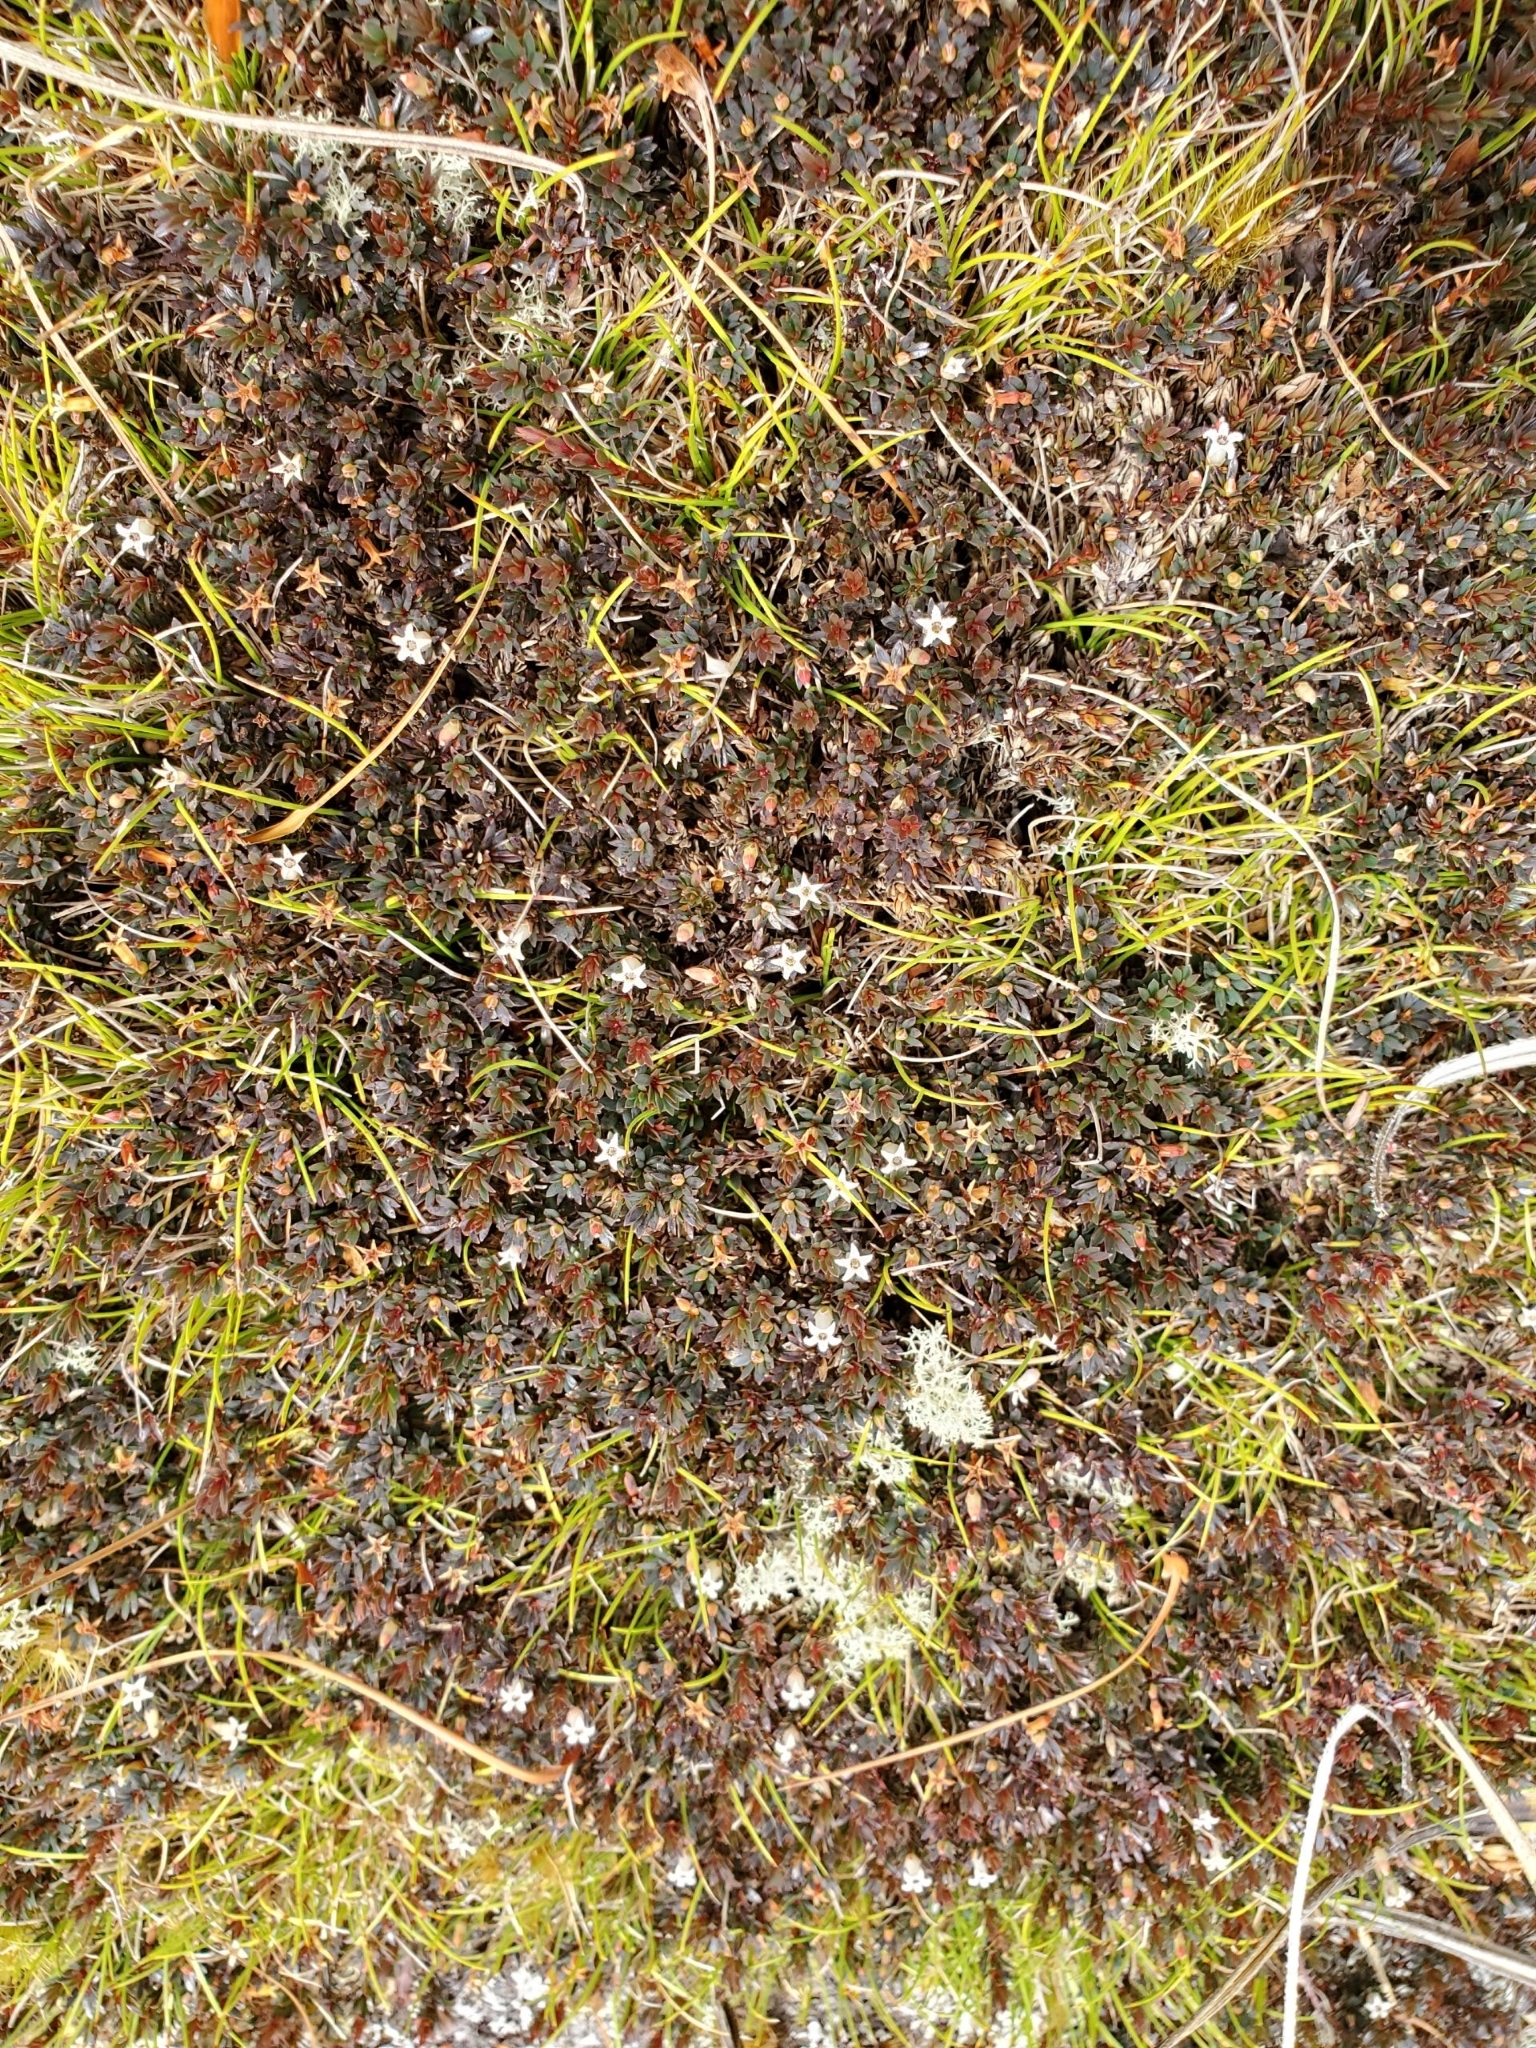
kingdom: Plantae
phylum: Tracheophyta
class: Magnoliopsida
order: Ericales
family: Ericaceae
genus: Pentachondra
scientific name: Pentachondra pumila
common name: Carpet-heath
